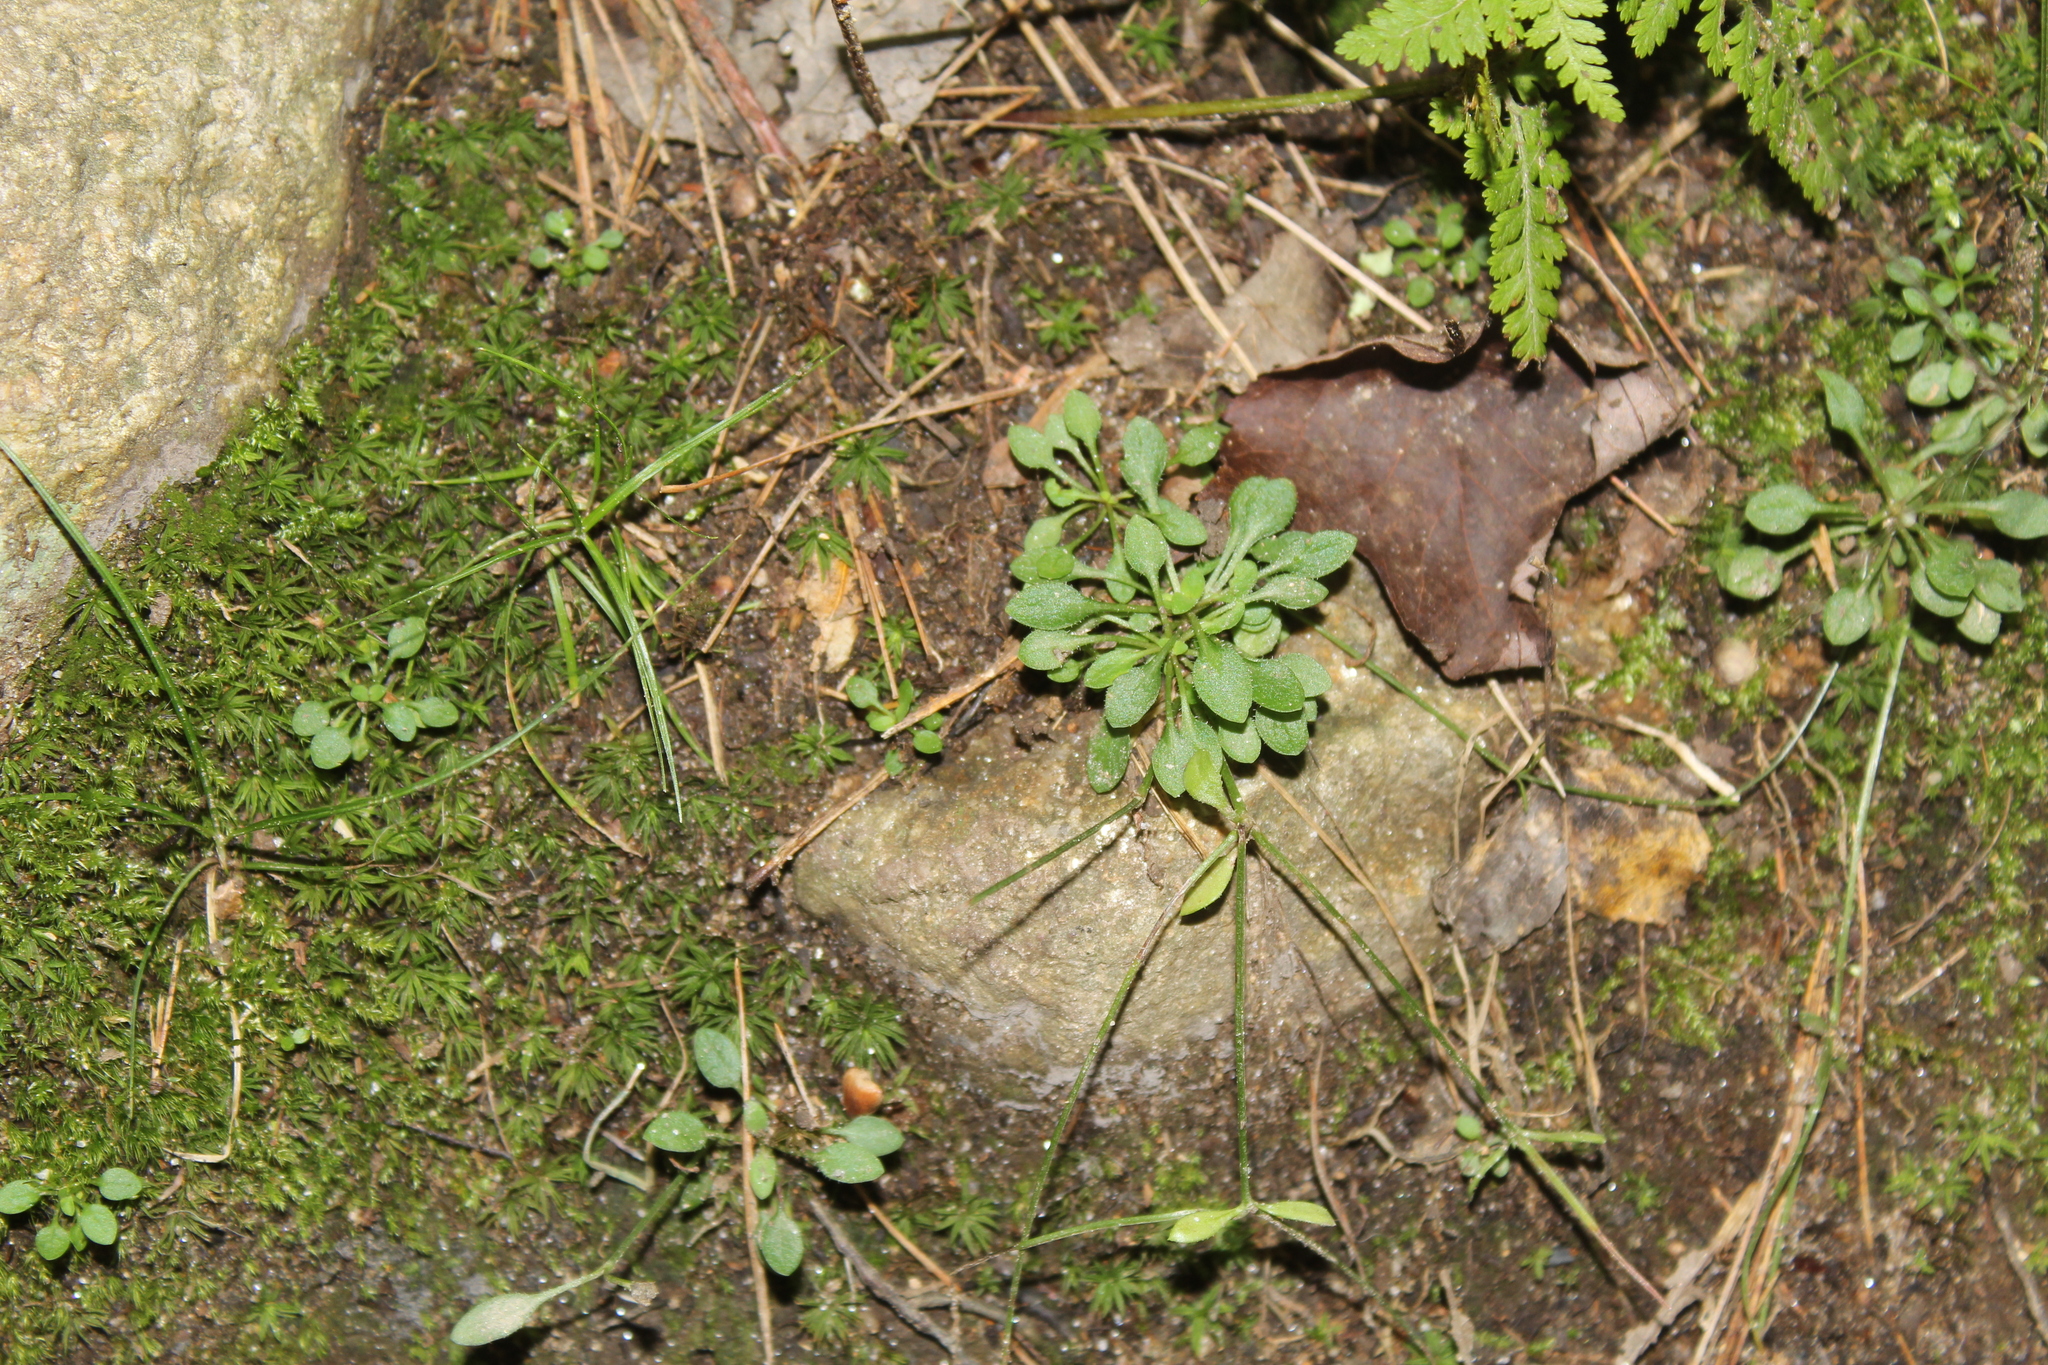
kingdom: Plantae
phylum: Tracheophyta
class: Magnoliopsida
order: Gentianales
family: Rubiaceae
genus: Houstonia
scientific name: Houstonia caerulea
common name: Bluets
